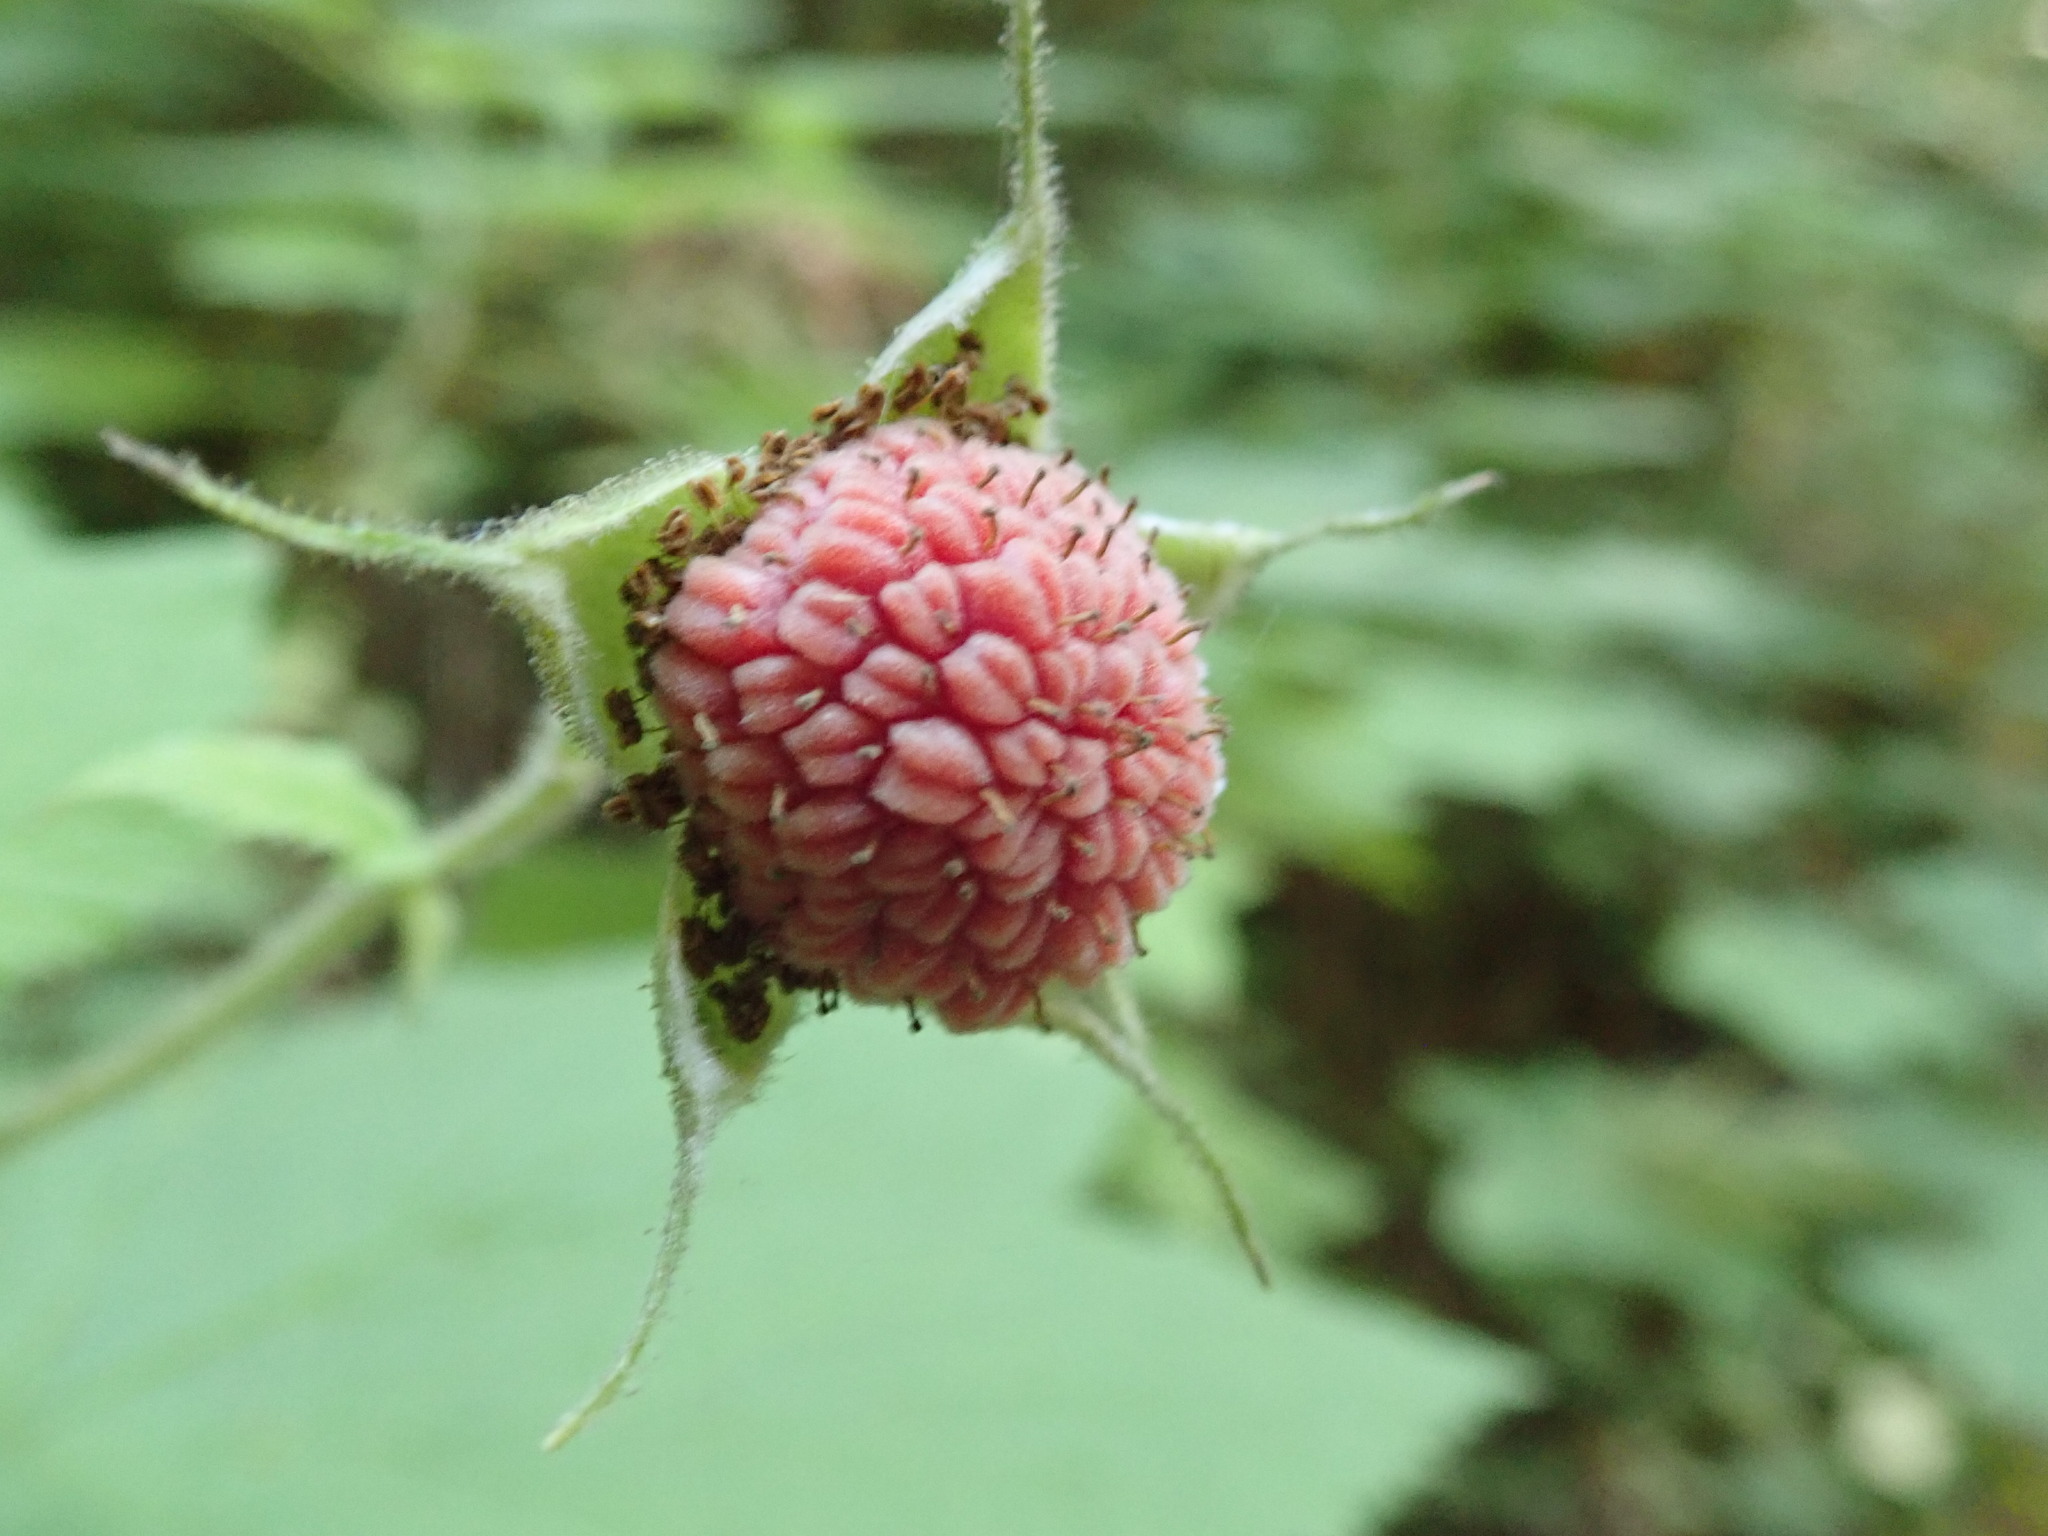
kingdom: Plantae
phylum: Tracheophyta
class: Magnoliopsida
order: Rosales
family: Rosaceae
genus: Rubus
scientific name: Rubus parviflorus
